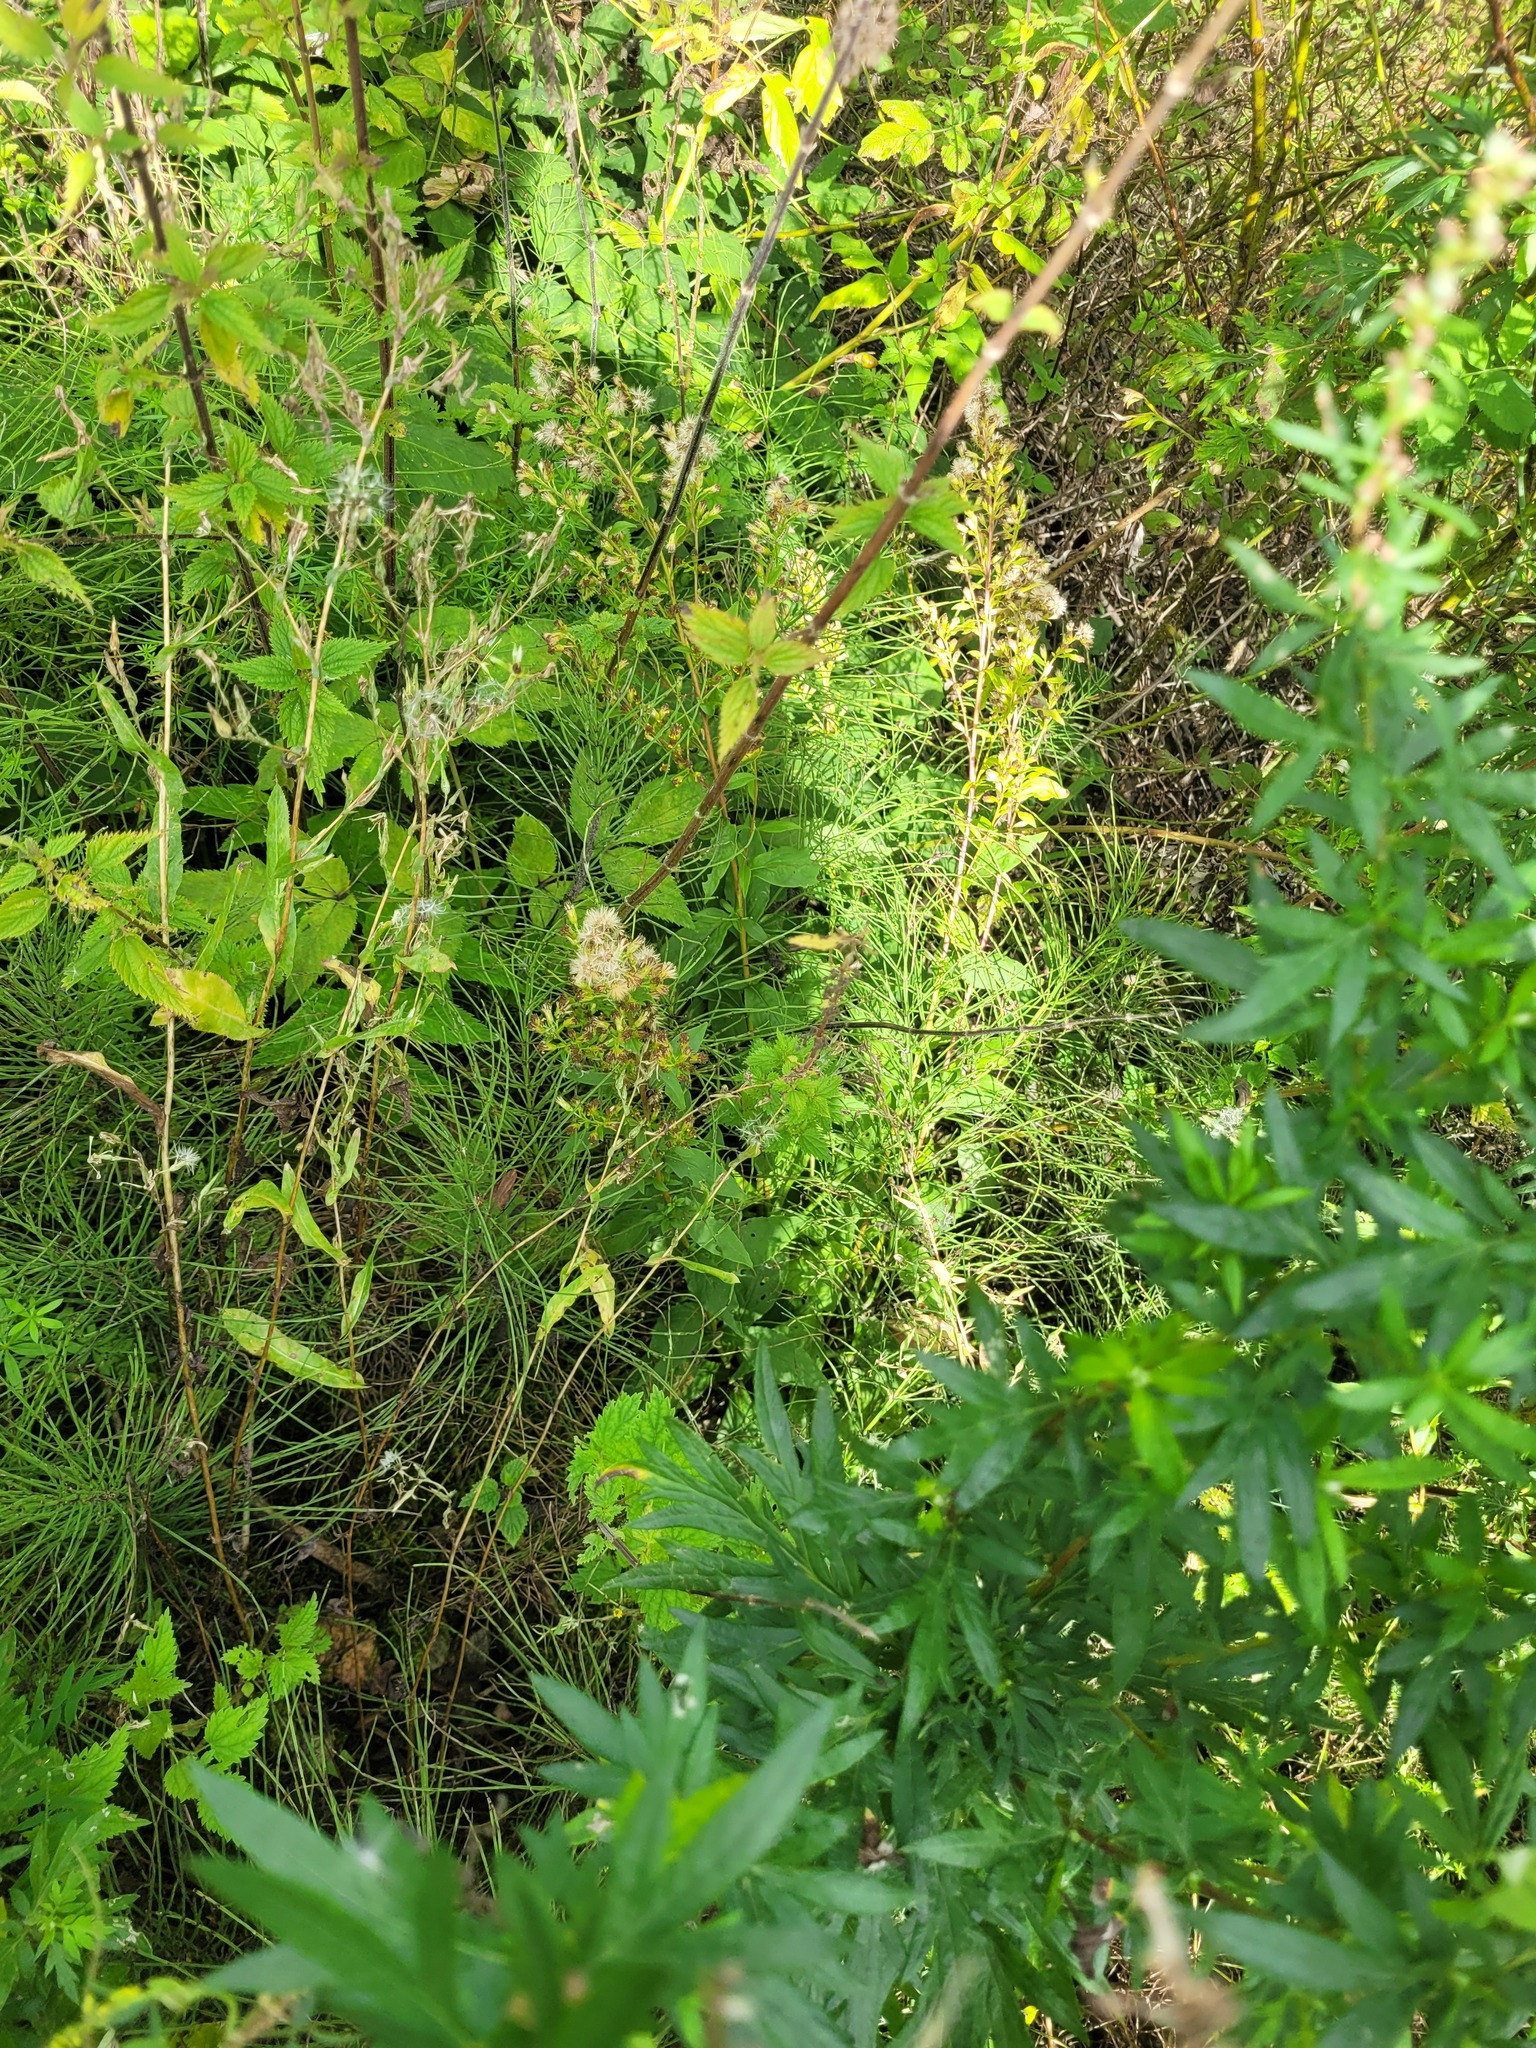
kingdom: Plantae
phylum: Tracheophyta
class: Magnoliopsida
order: Asterales
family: Asteraceae
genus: Solidago
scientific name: Solidago virgaurea
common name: Goldenrod
